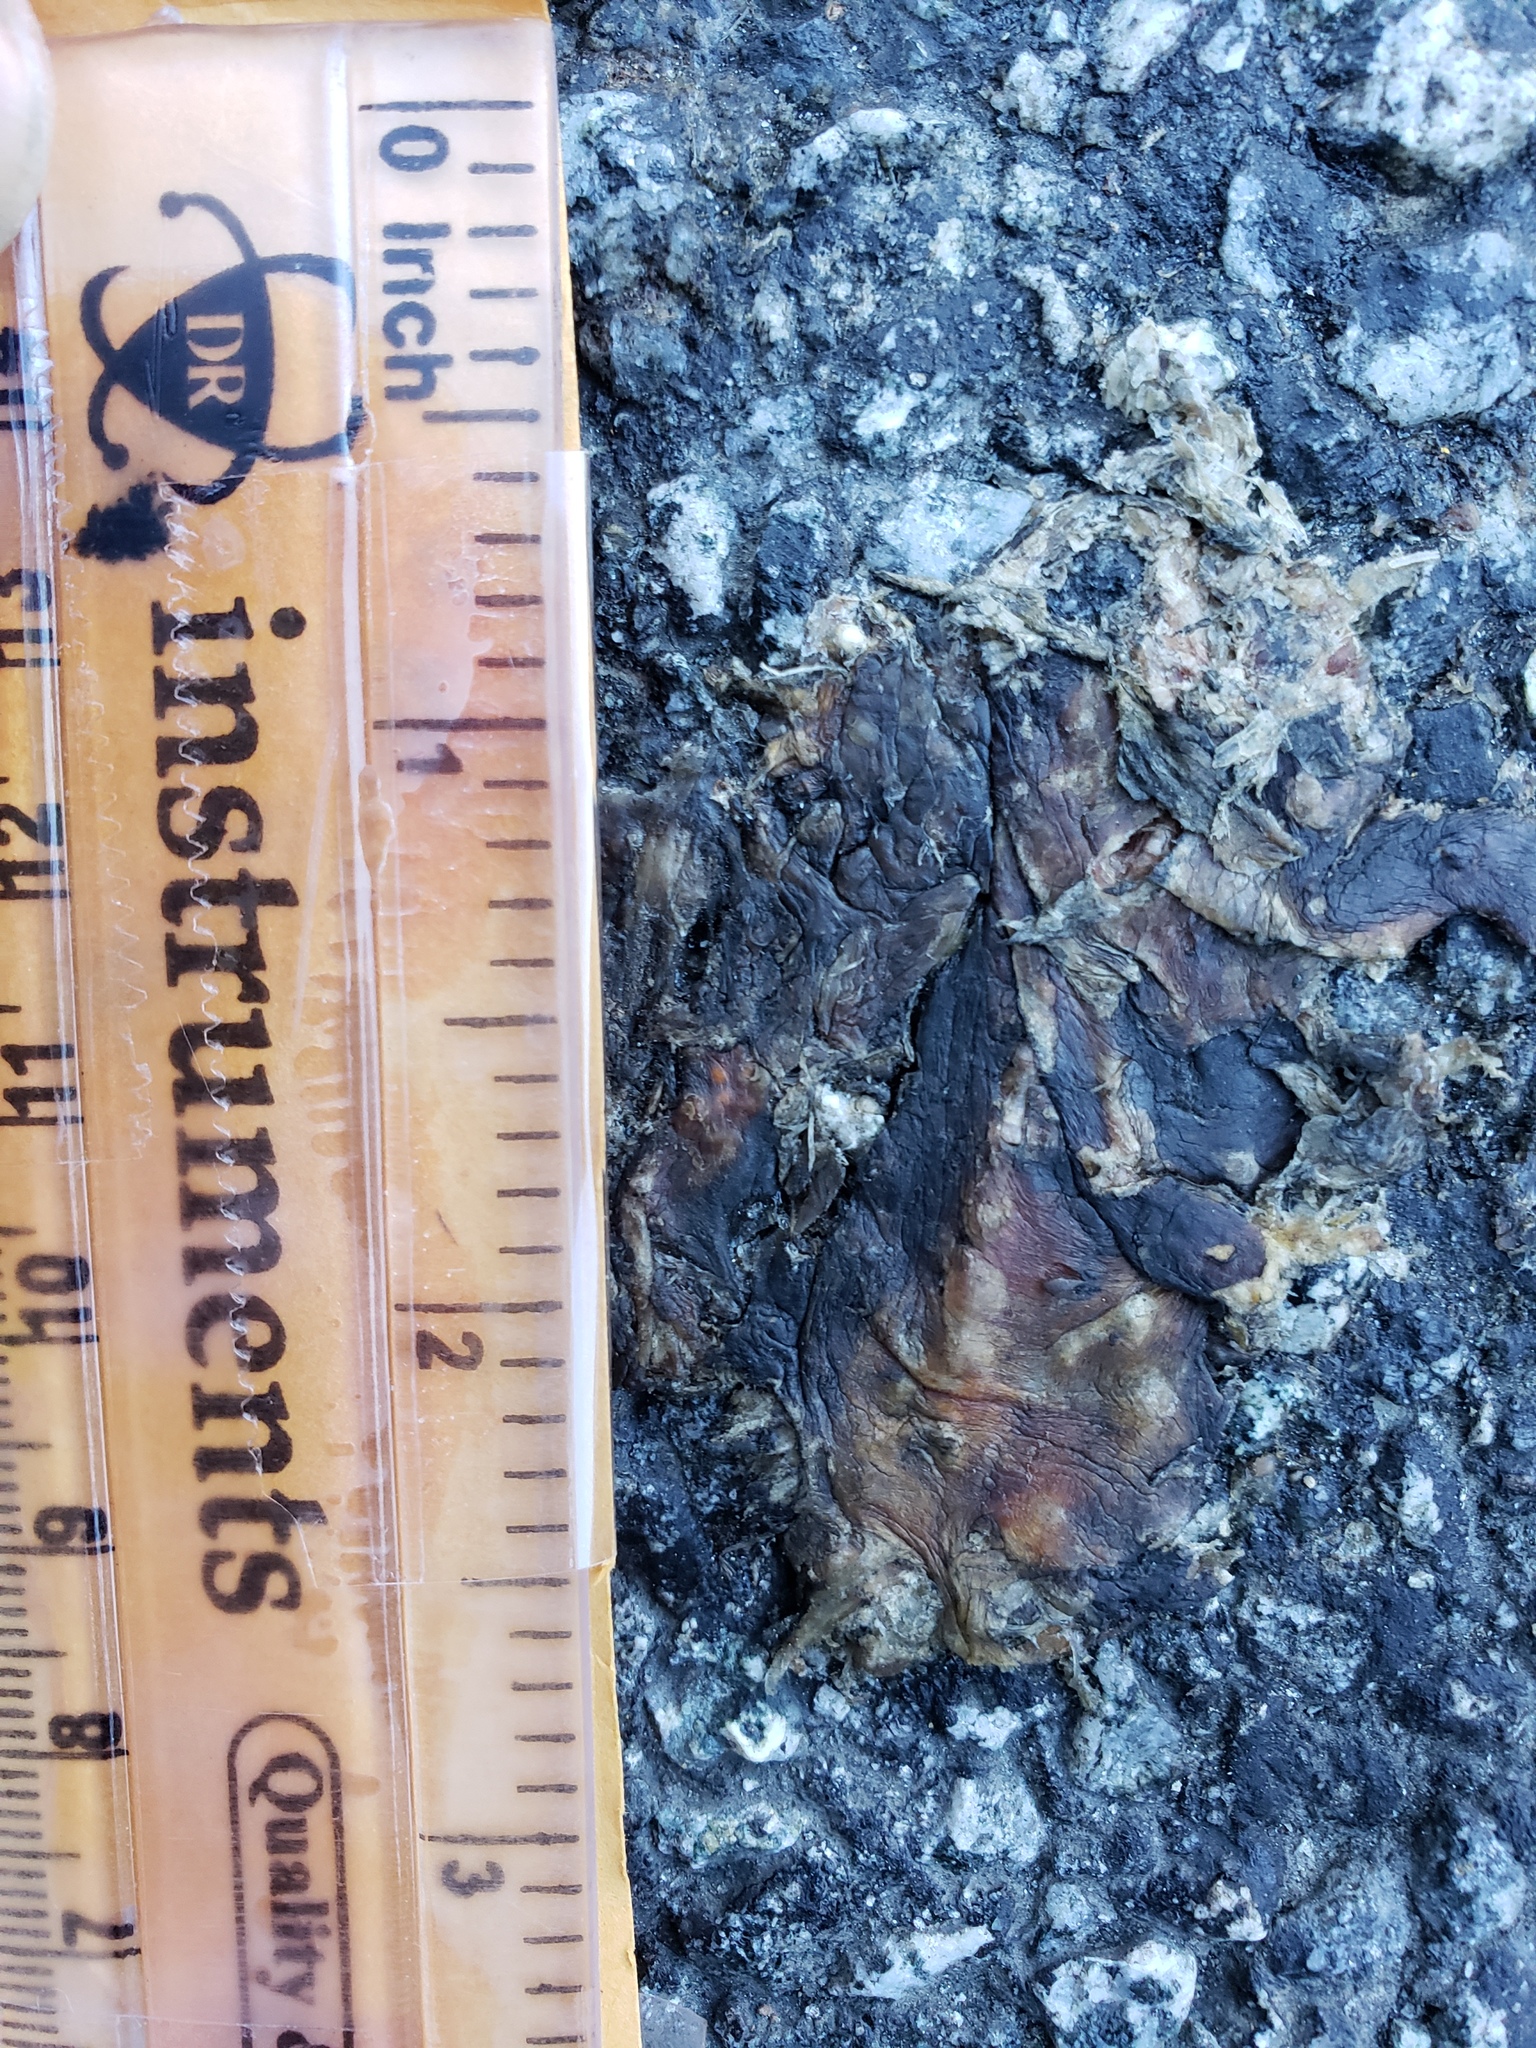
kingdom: Animalia
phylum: Chordata
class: Amphibia
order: Caudata
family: Salamandridae
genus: Taricha
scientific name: Taricha
